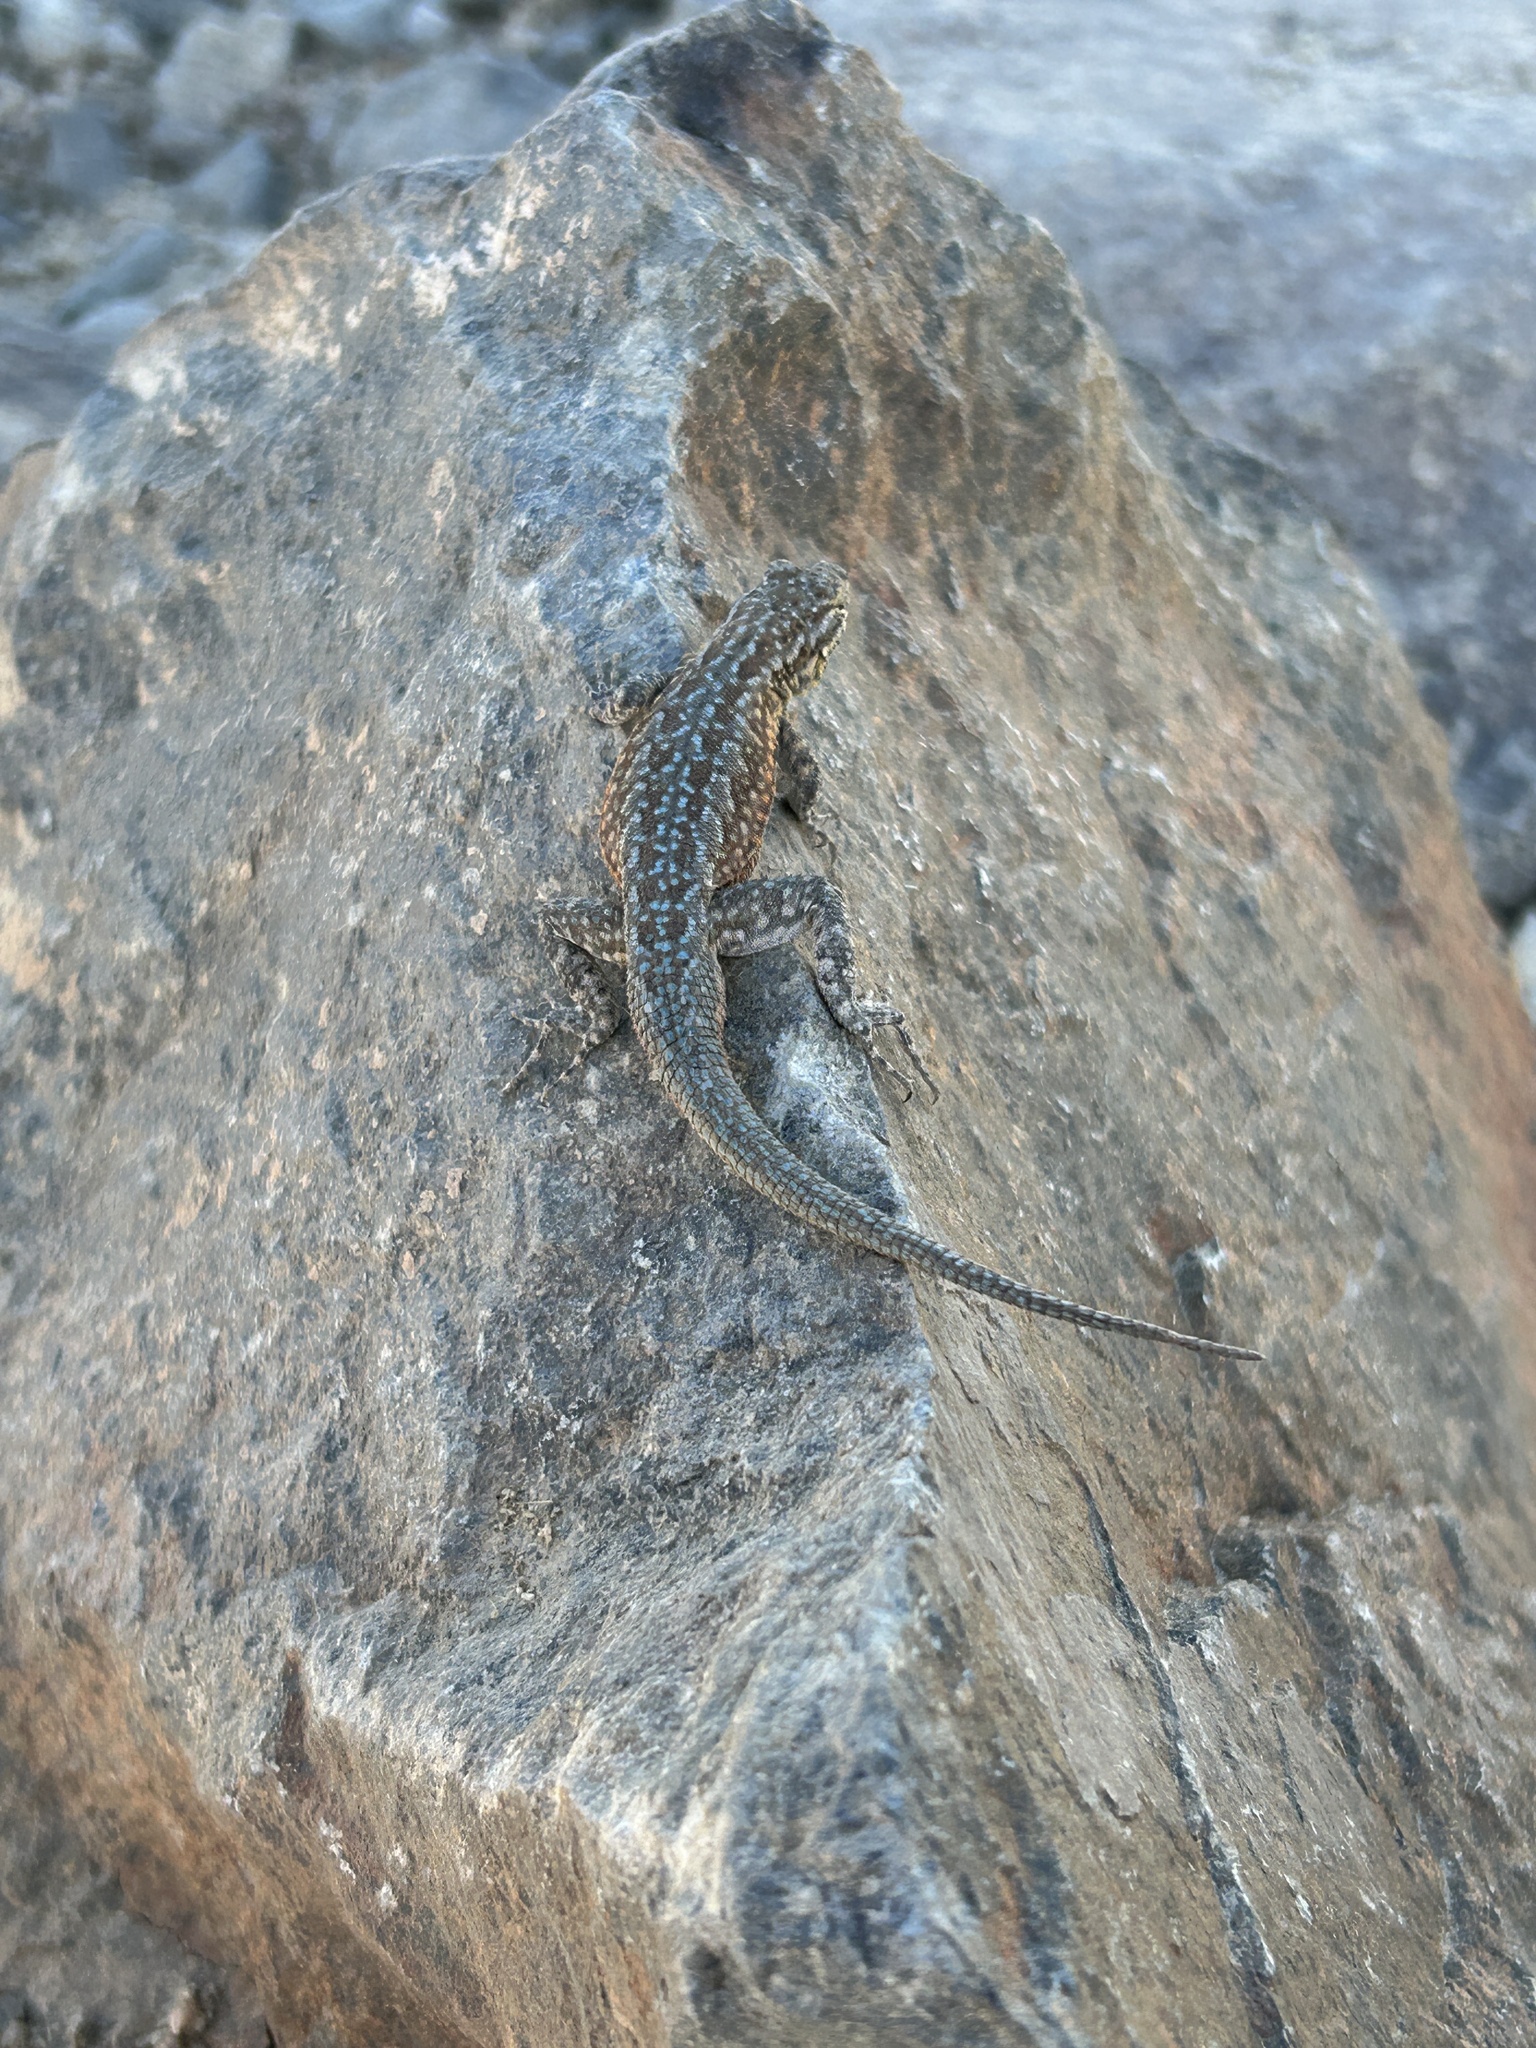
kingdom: Animalia
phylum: Chordata
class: Squamata
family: Phrynosomatidae
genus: Uta
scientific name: Uta stansburiana
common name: Side-blotched lizard
